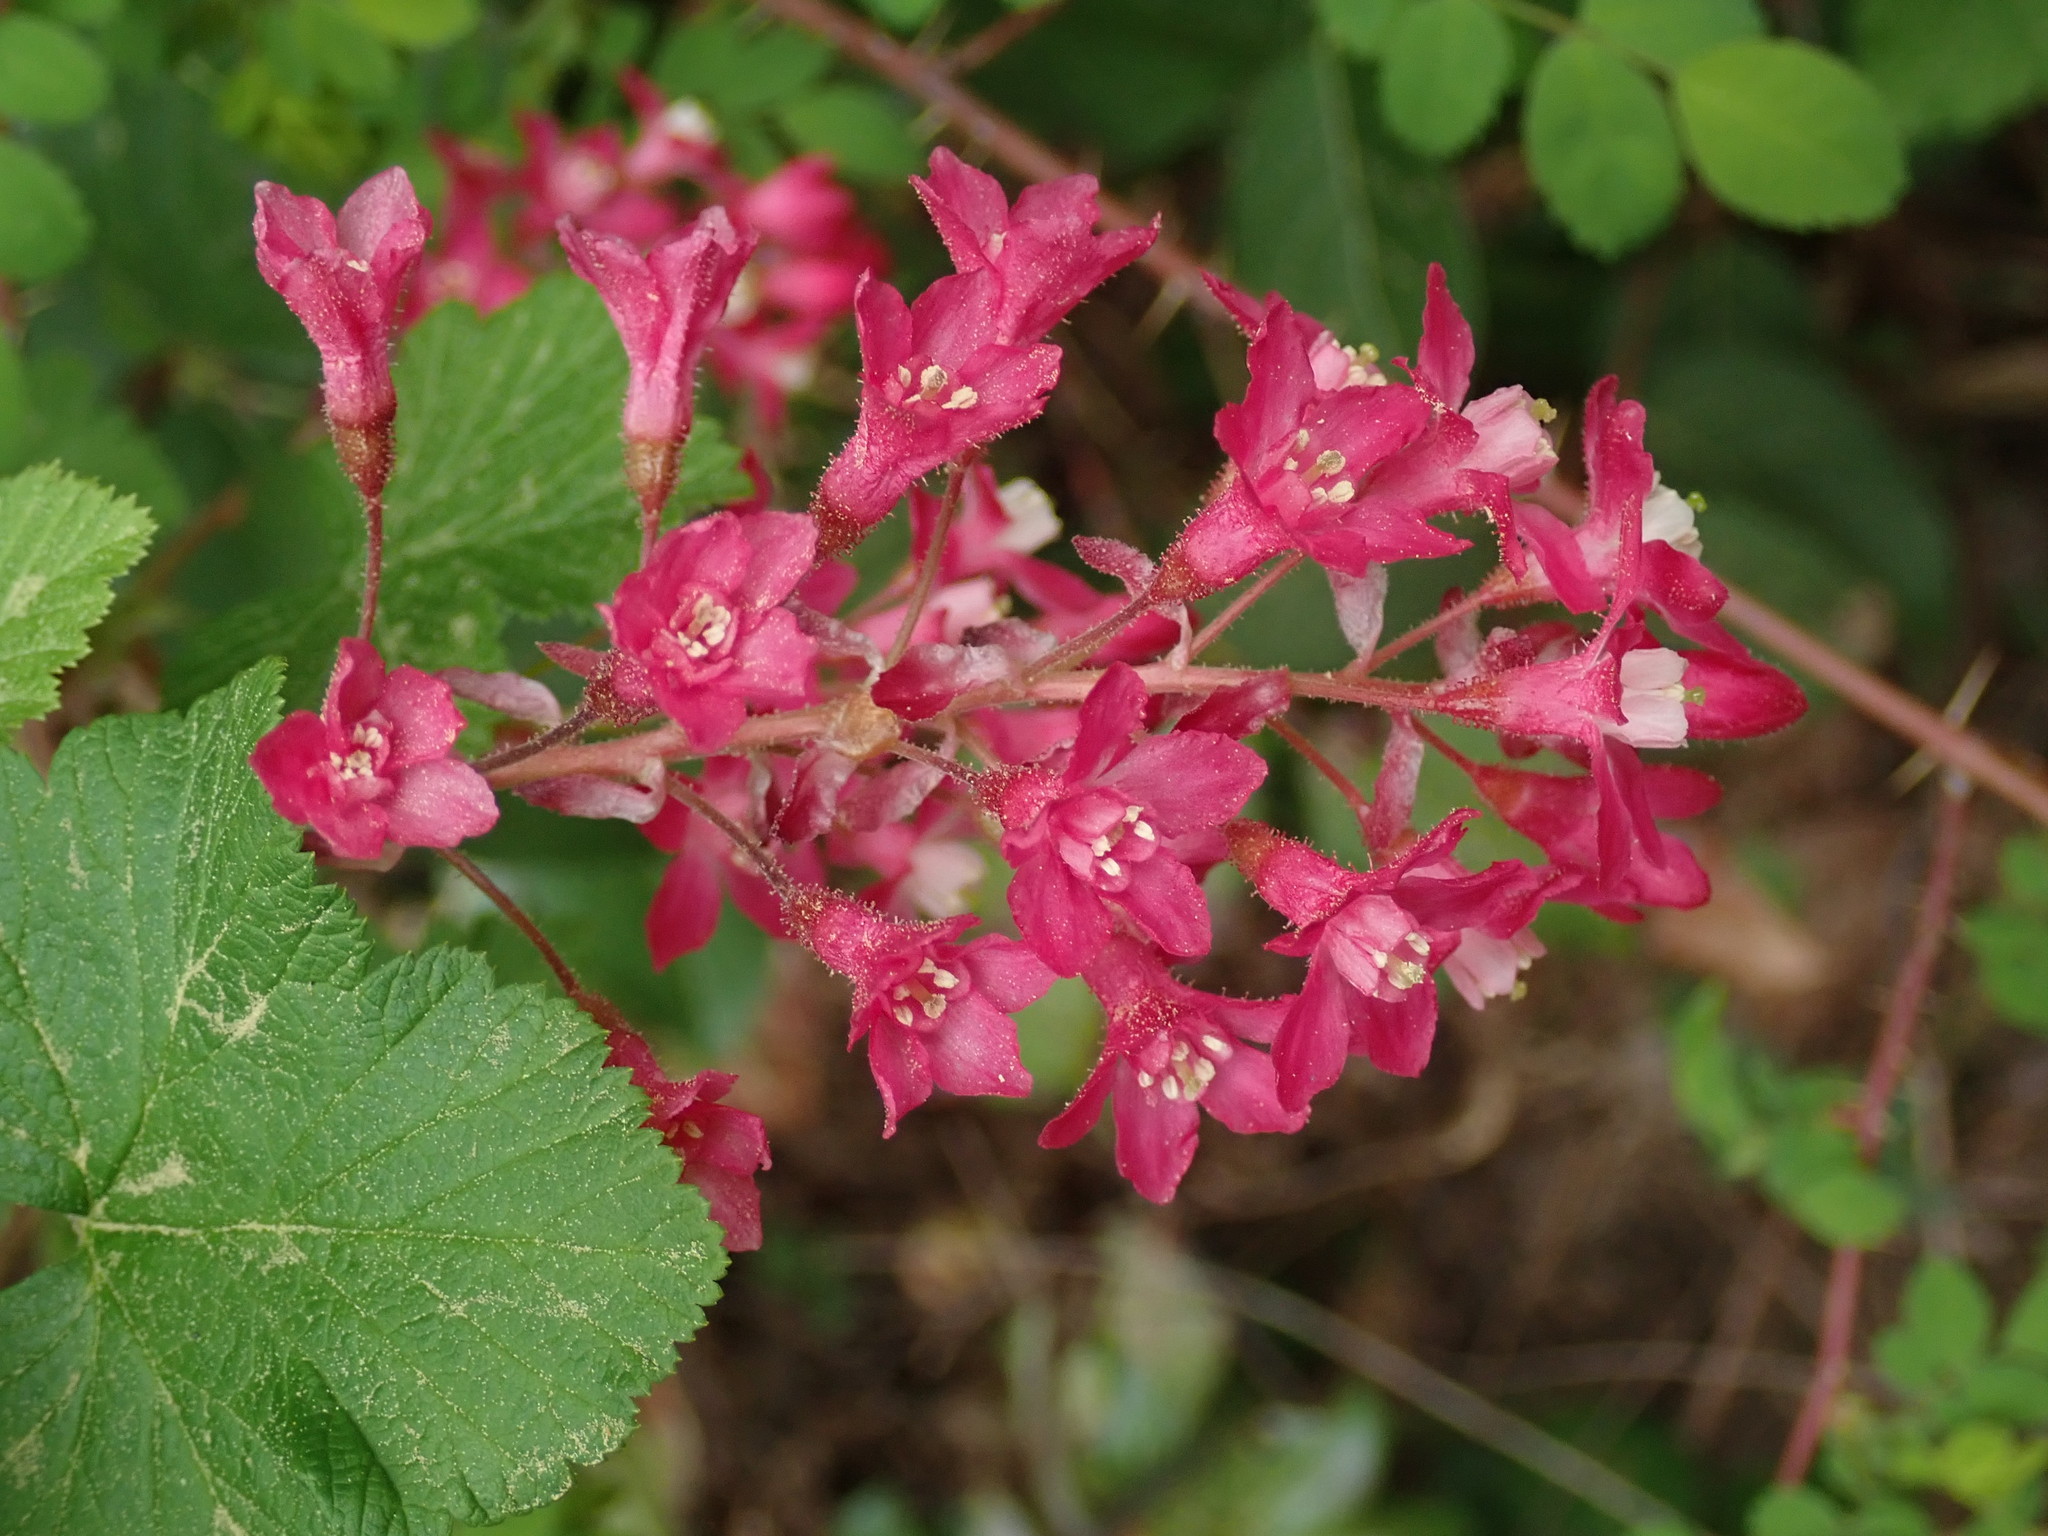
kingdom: Plantae
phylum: Tracheophyta
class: Magnoliopsida
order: Saxifragales
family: Grossulariaceae
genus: Ribes
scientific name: Ribes sanguineum
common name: Flowering currant
